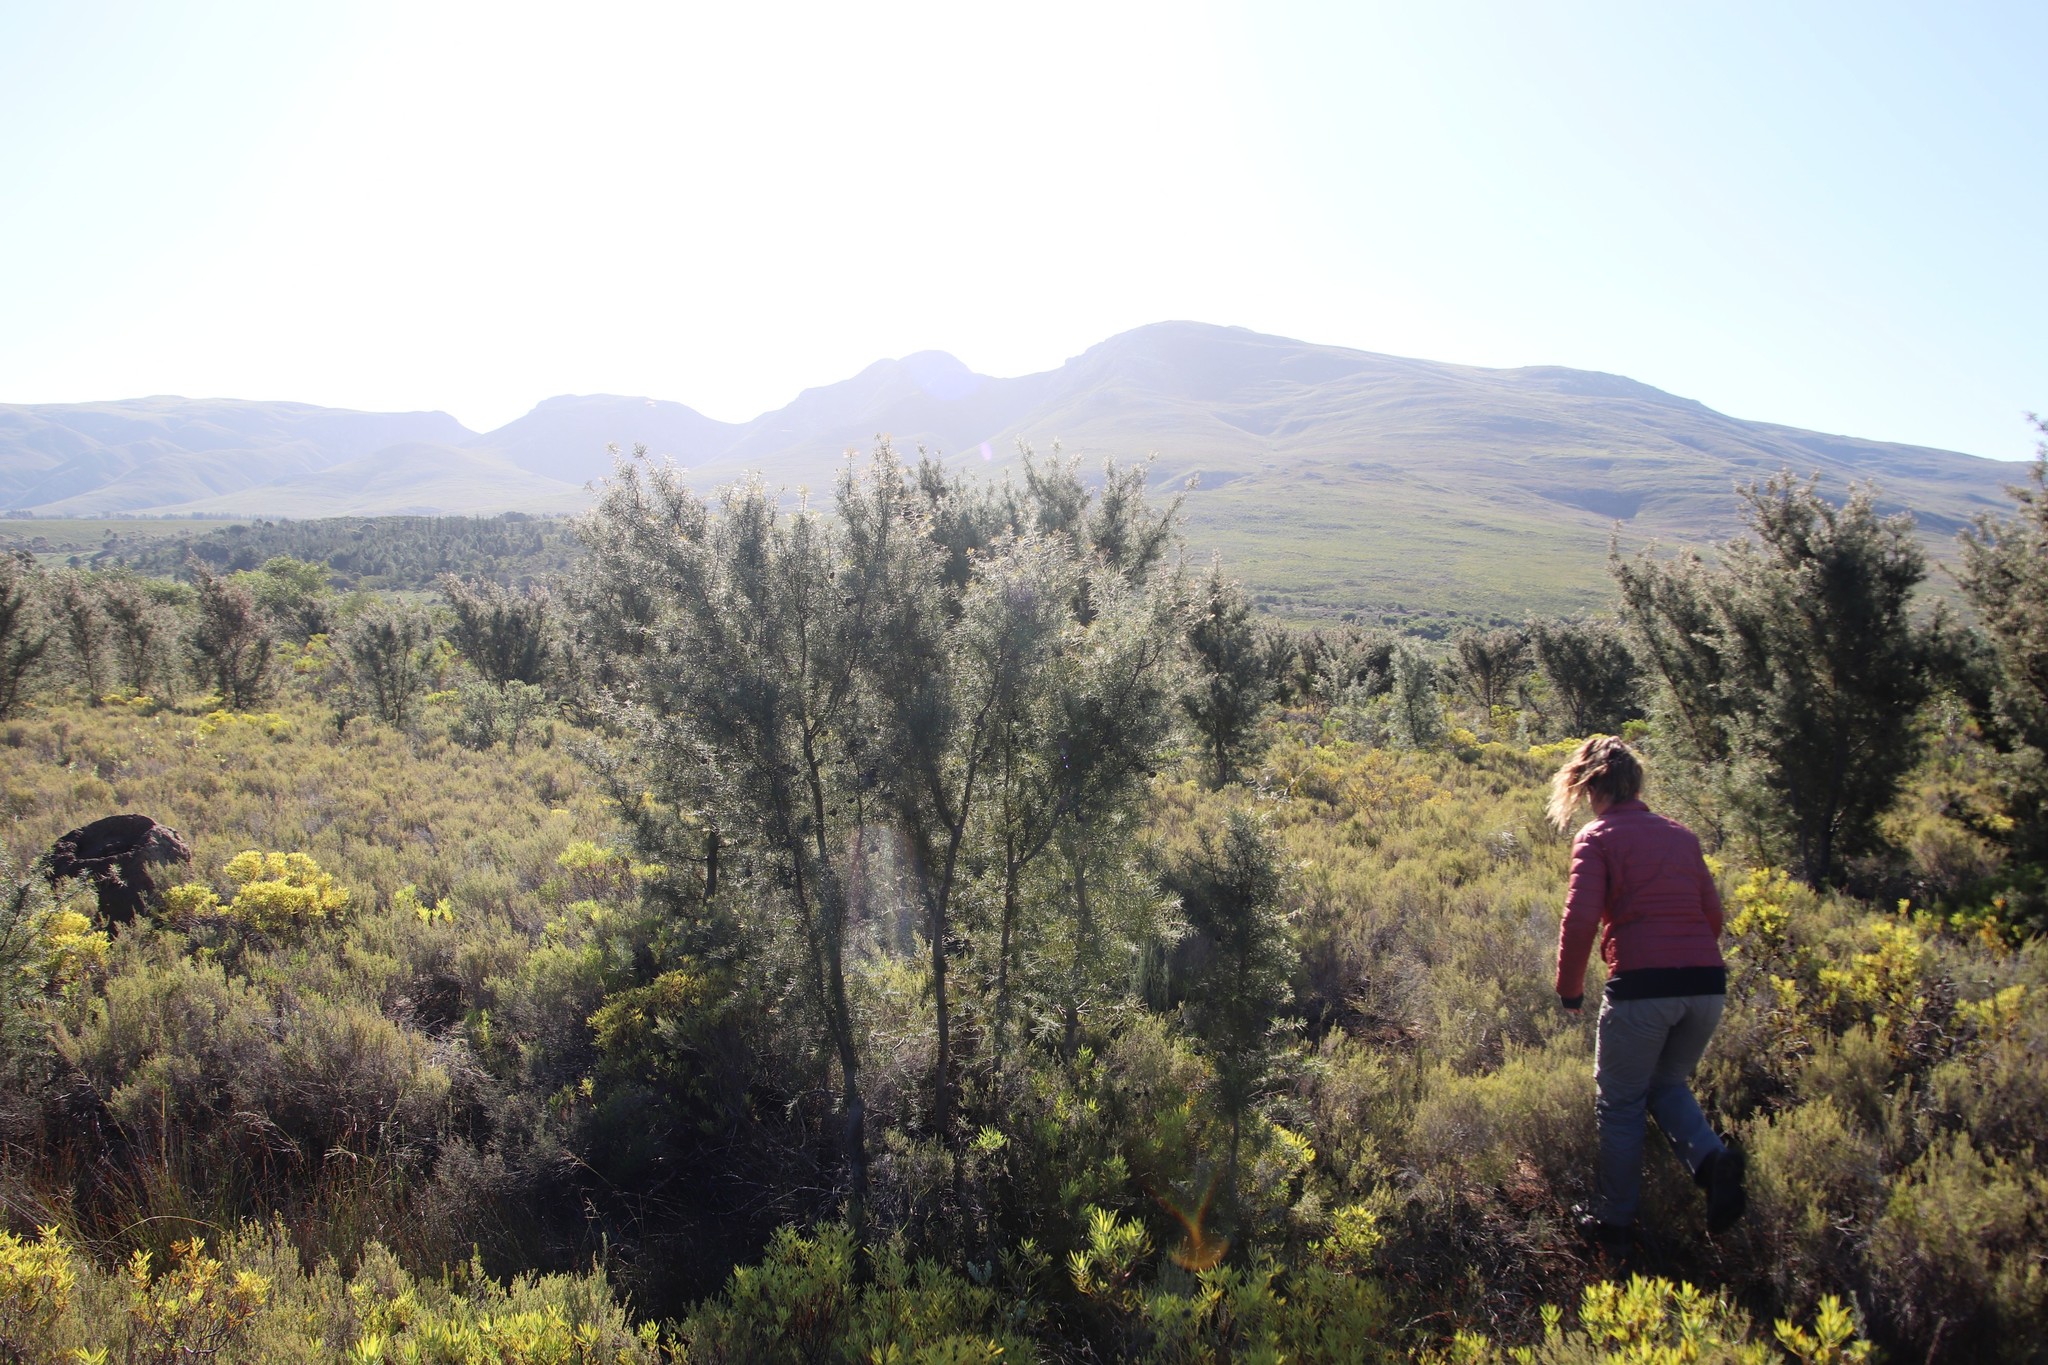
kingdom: Plantae
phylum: Tracheophyta
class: Magnoliopsida
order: Proteales
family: Proteaceae
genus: Hakea
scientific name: Hakea gibbosa
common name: Rock hakea
